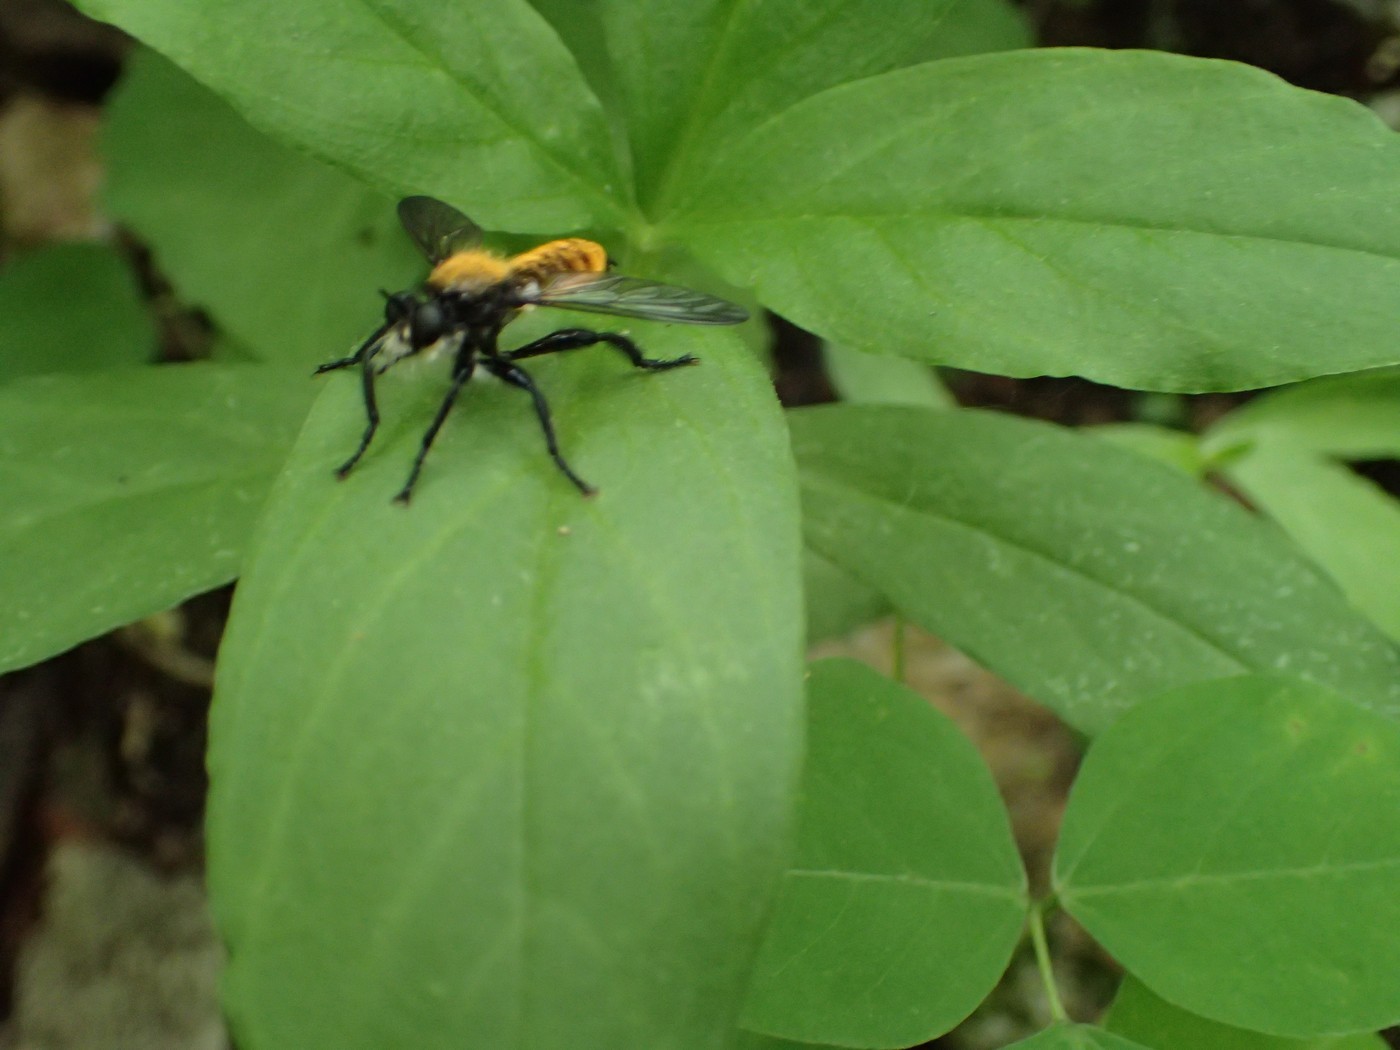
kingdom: Animalia
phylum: Arthropoda
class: Insecta
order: Diptera
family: Asilidae
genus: Laphria
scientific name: Laphria sericea
